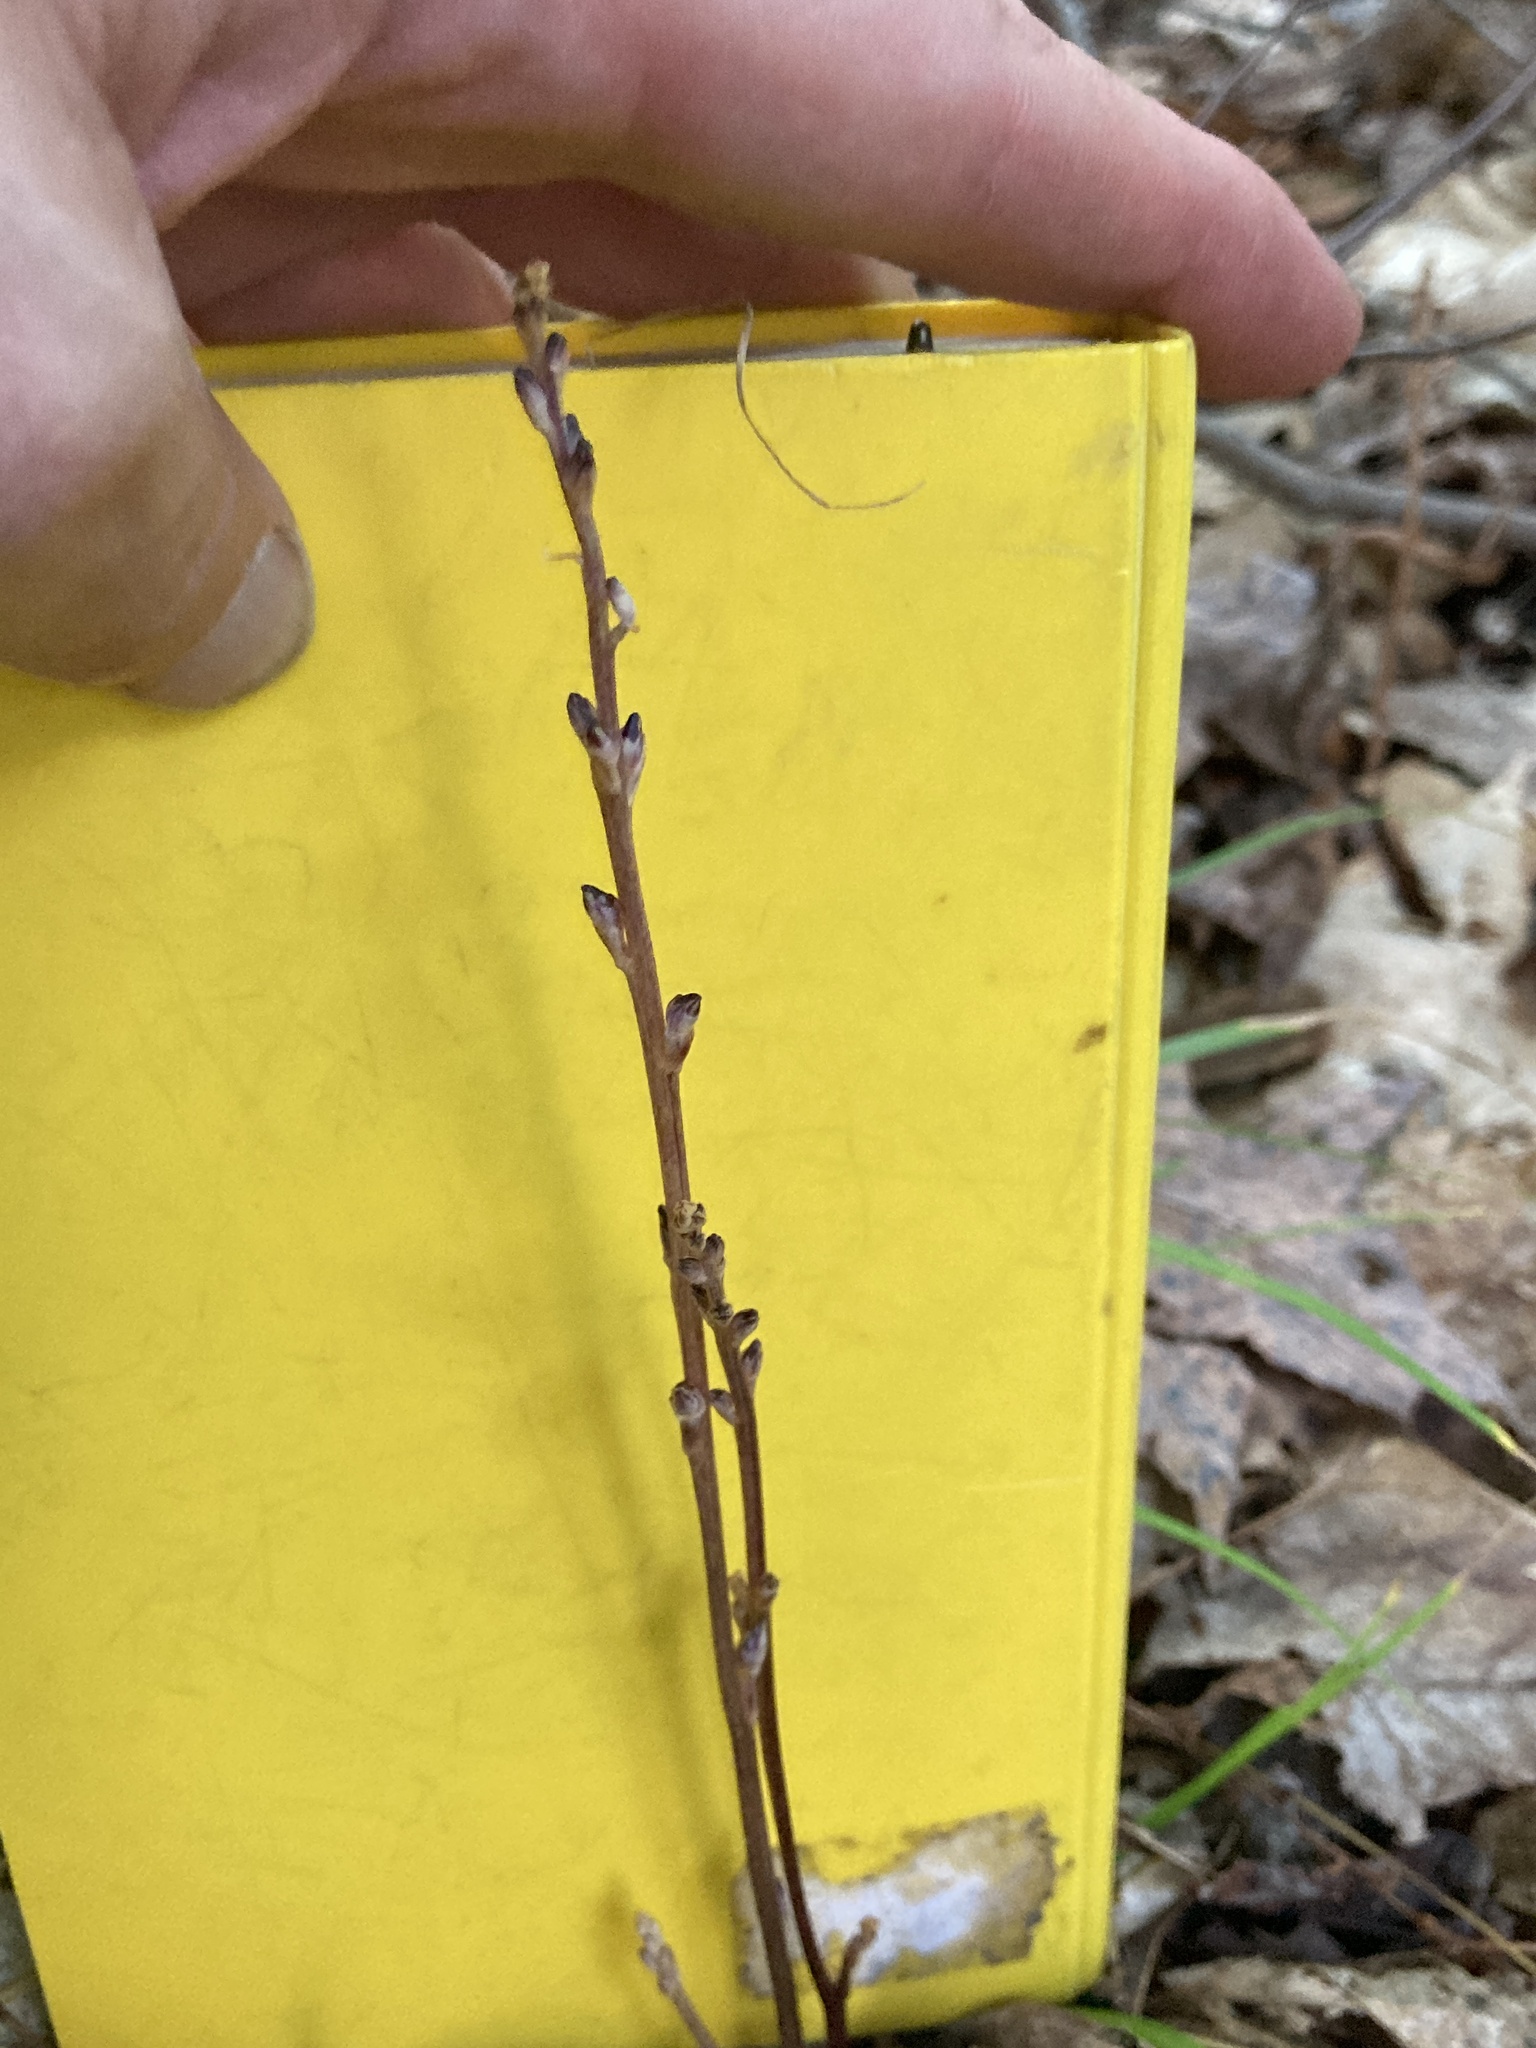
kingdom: Plantae
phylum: Tracheophyta
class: Magnoliopsida
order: Lamiales
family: Orobanchaceae
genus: Epifagus
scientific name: Epifagus virginiana
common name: Beechdrops
